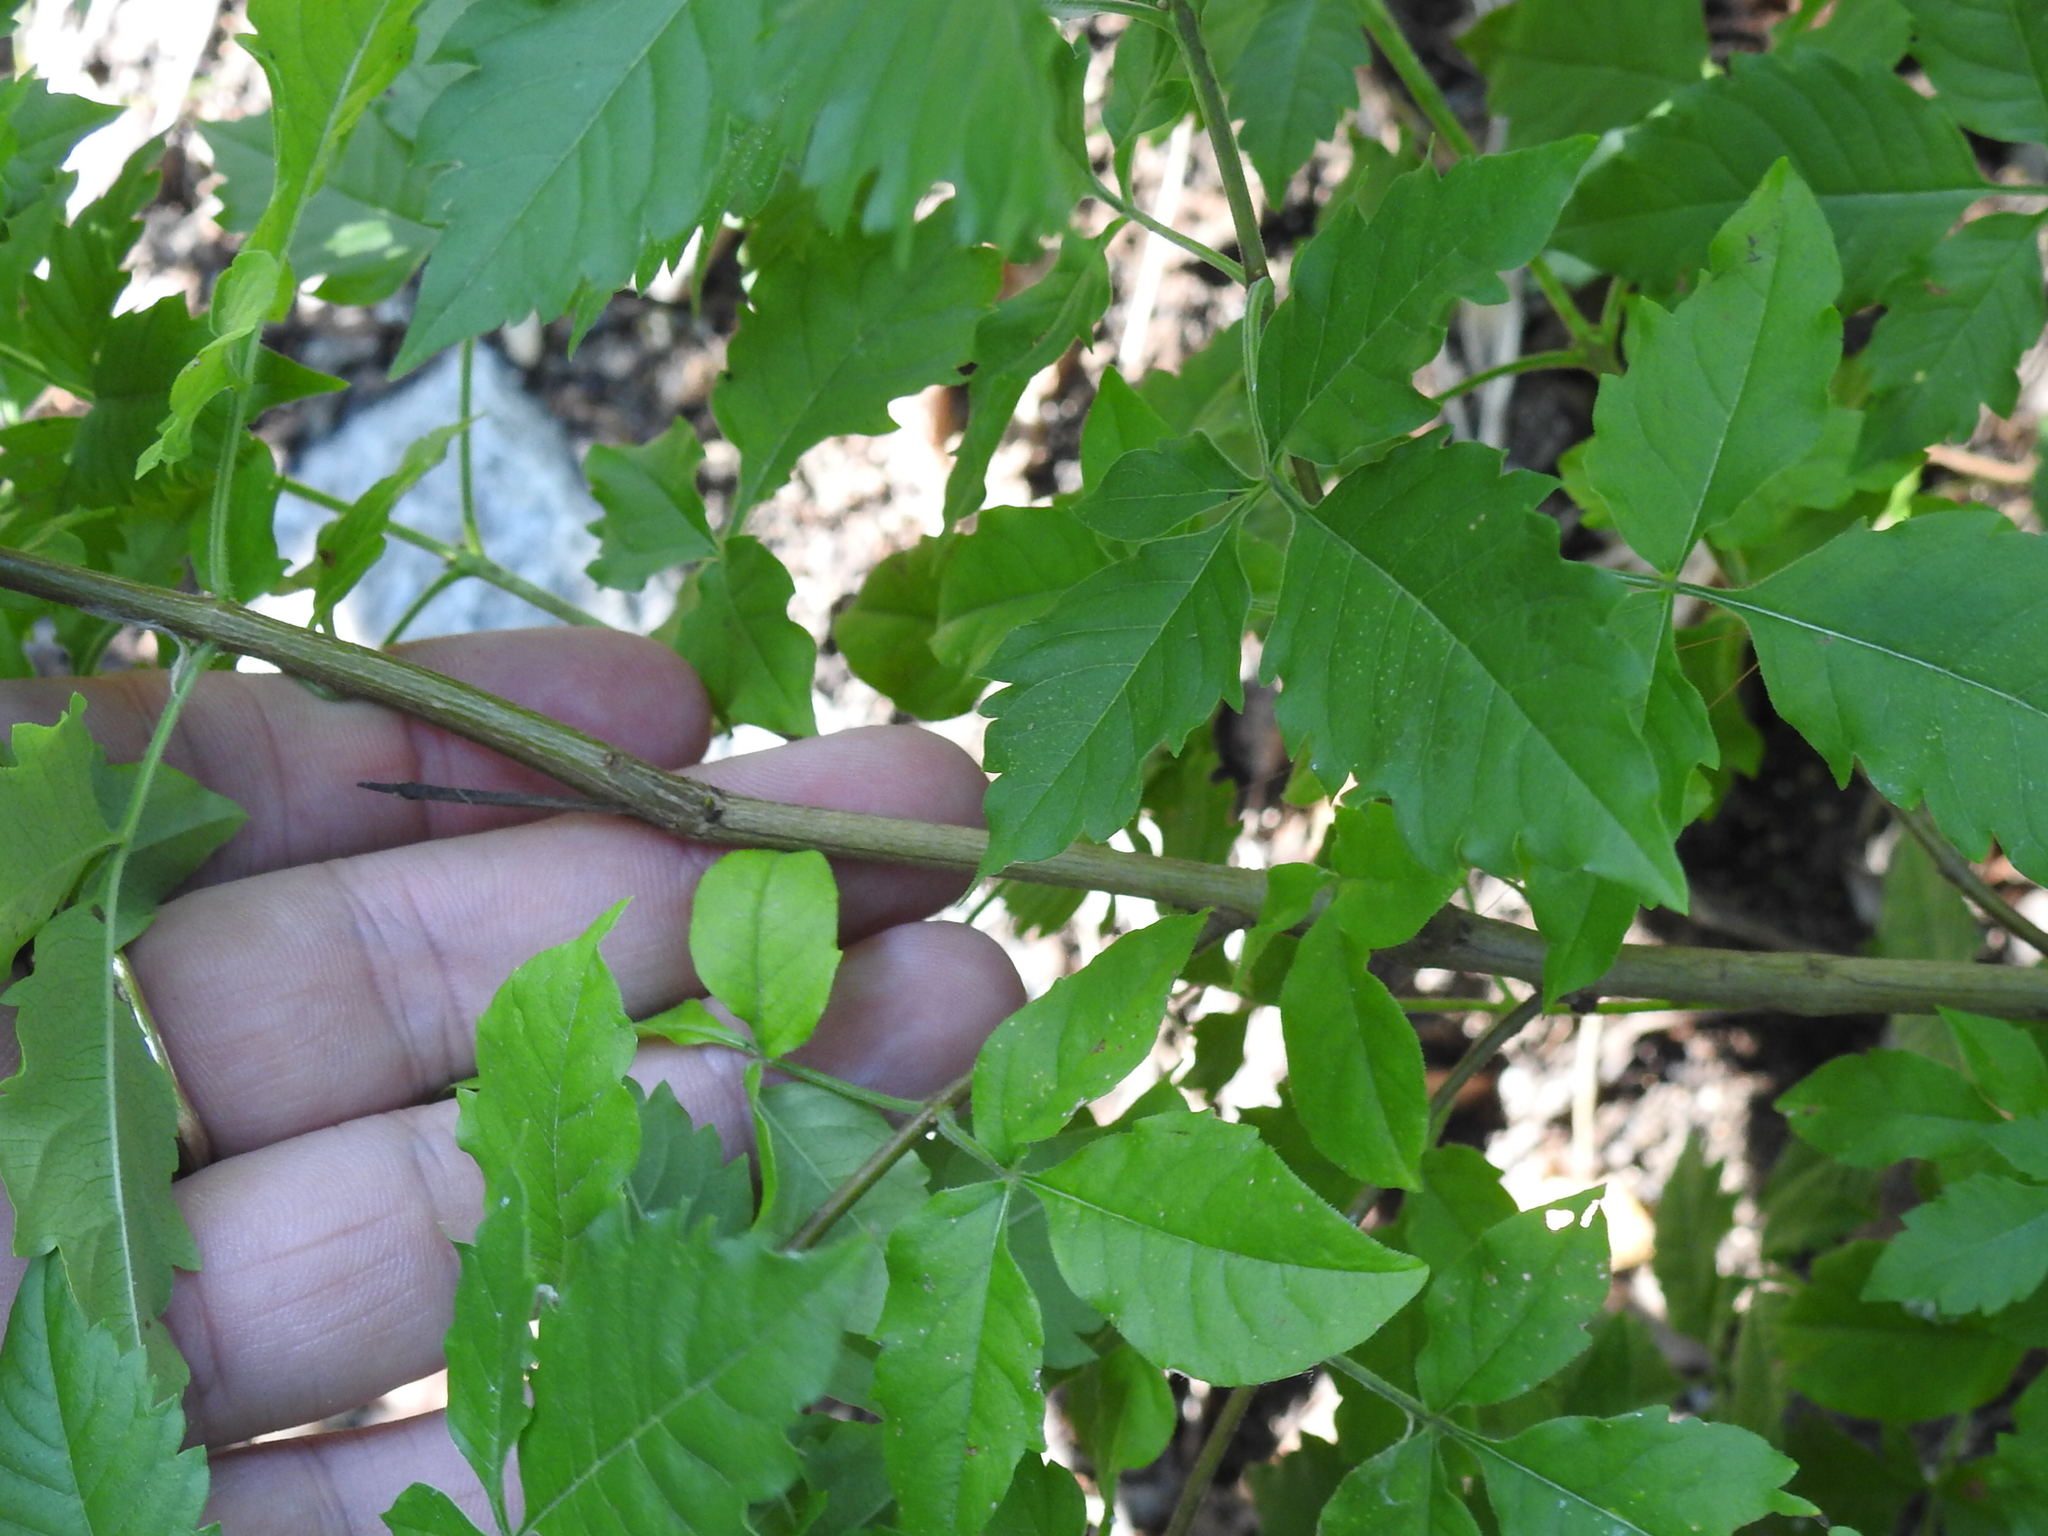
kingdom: Plantae
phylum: Tracheophyta
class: Magnoliopsida
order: Lamiales
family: Lamiaceae
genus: Vitex
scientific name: Vitex negundo
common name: Chinese chastetree
